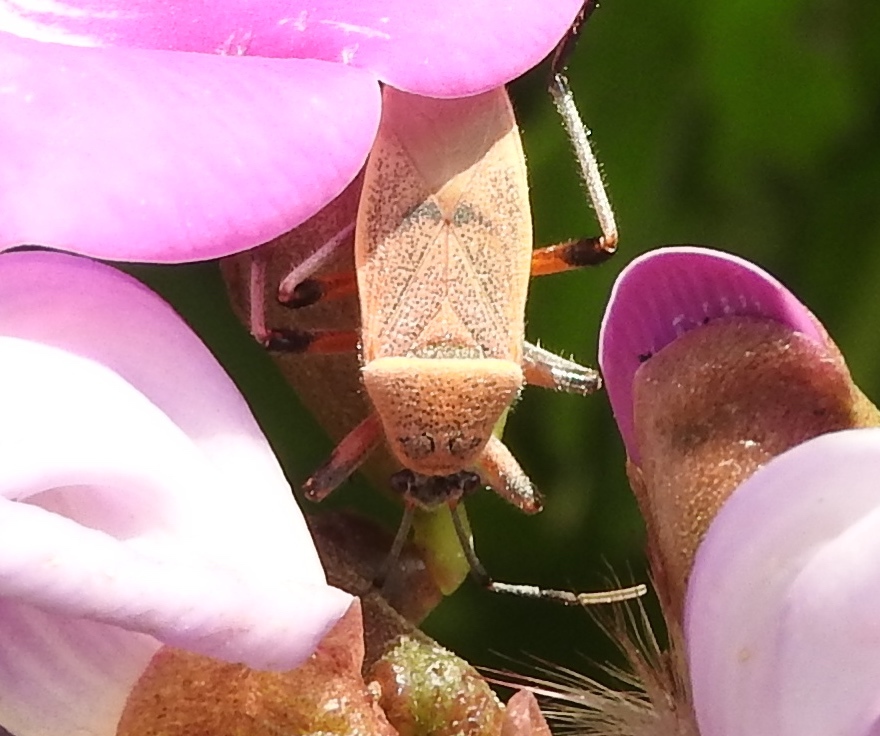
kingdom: Animalia
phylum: Arthropoda
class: Insecta
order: Hemiptera
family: Largidae
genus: Largus
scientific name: Largus
